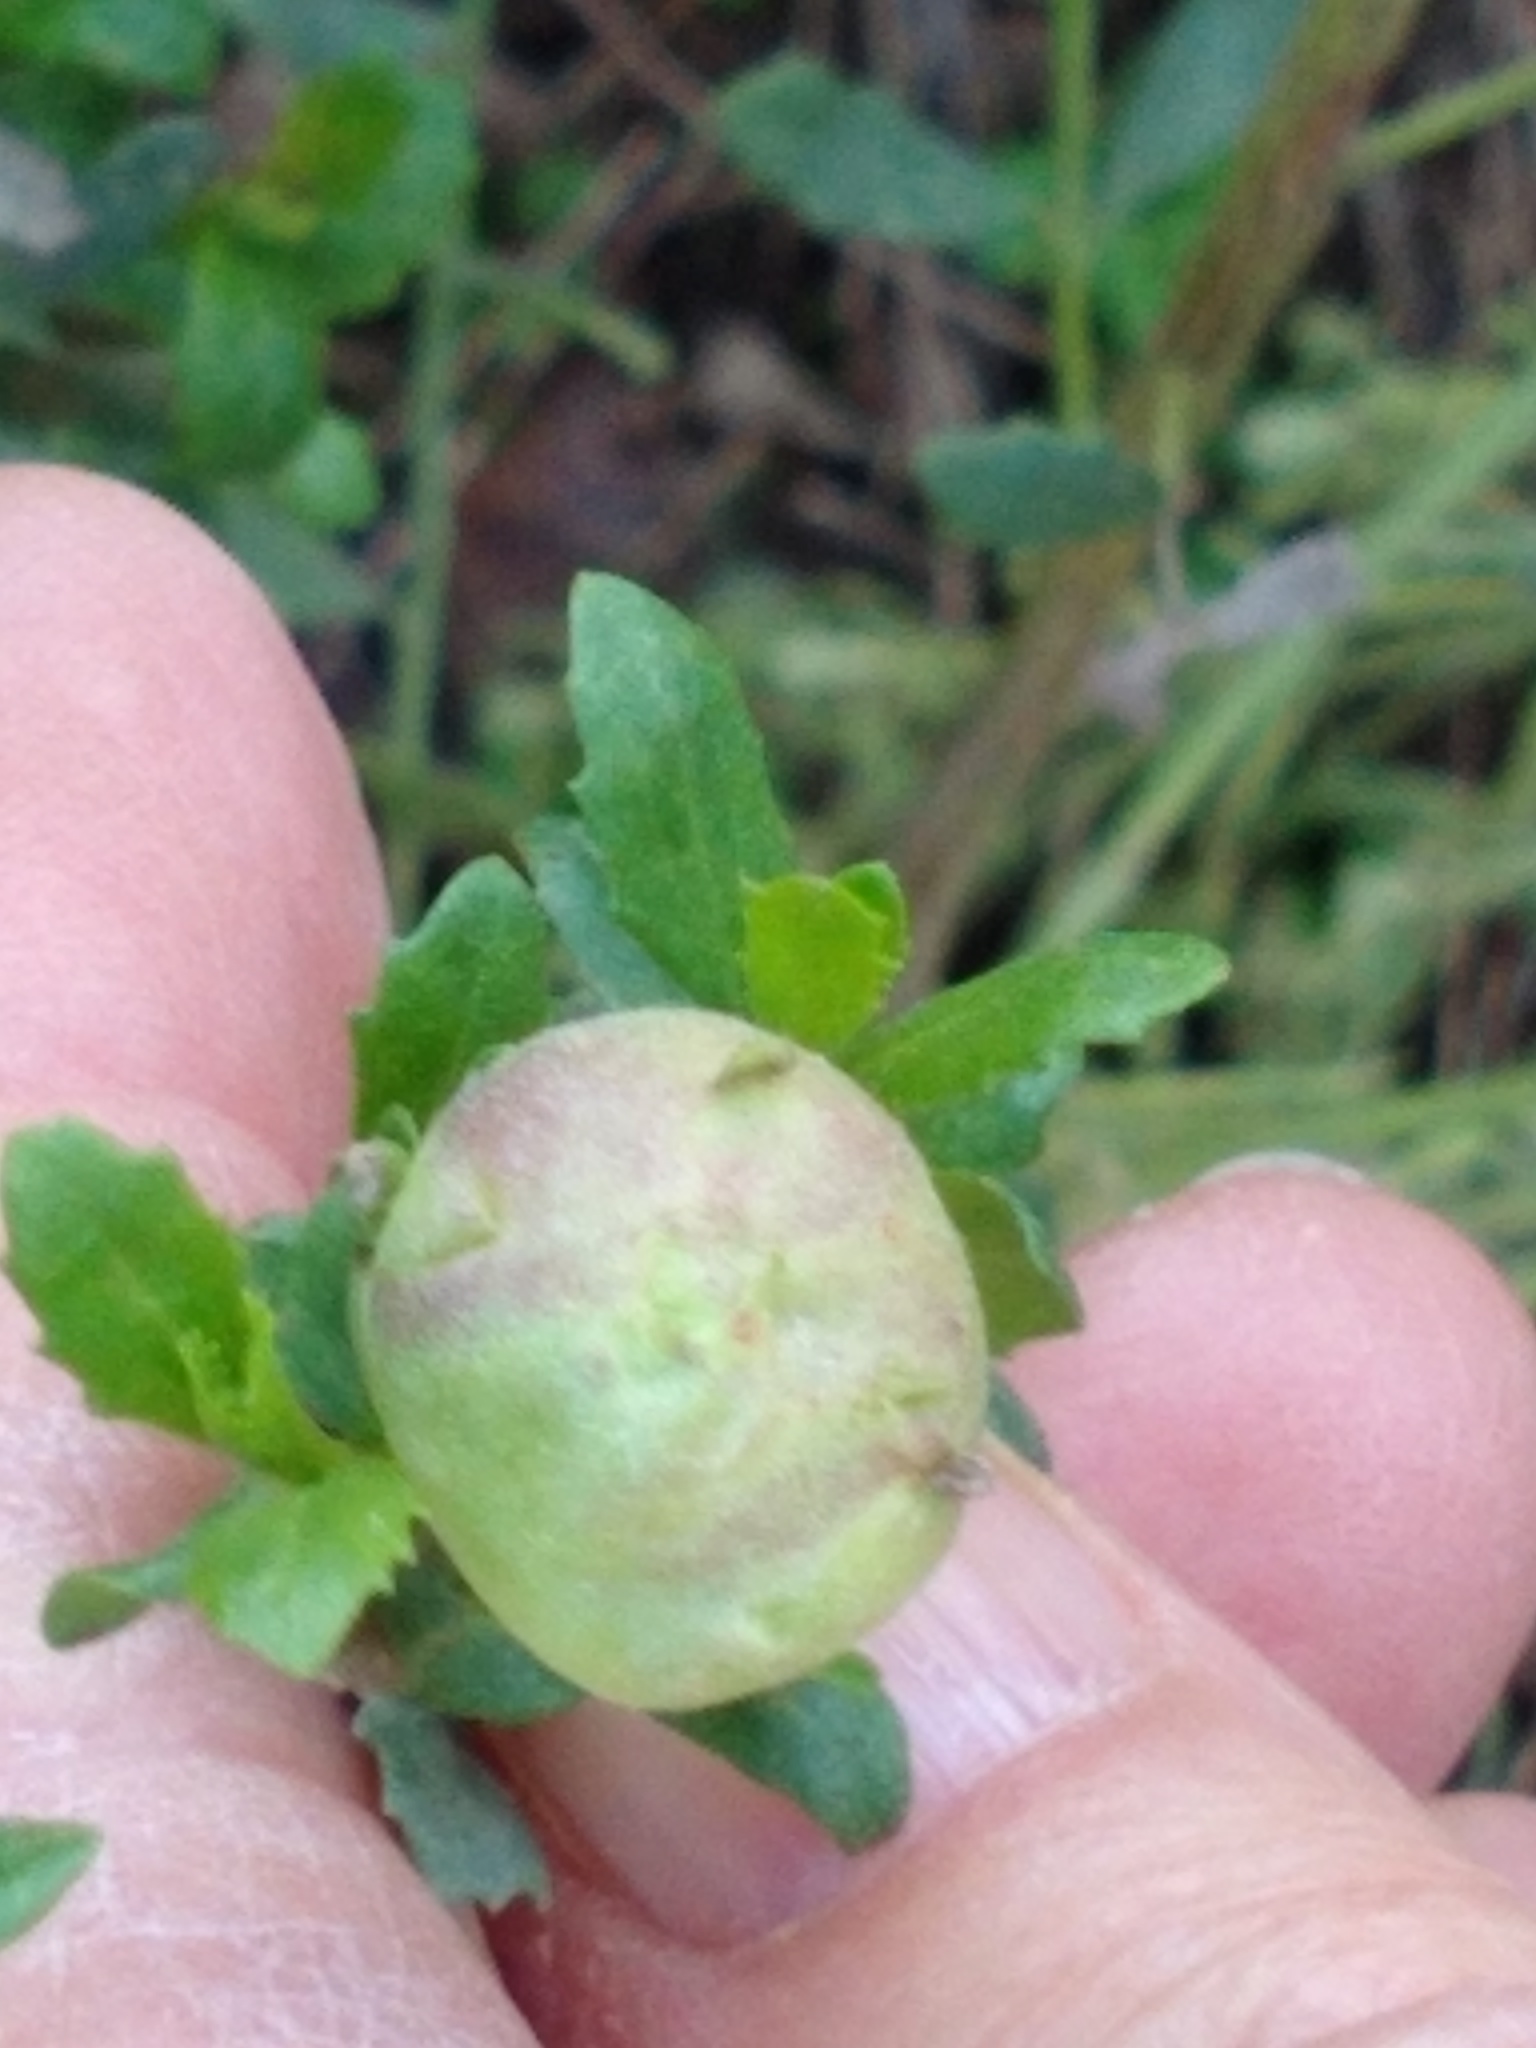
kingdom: Animalia
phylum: Arthropoda
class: Insecta
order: Diptera
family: Cecidomyiidae
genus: Rhopalomyia
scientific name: Rhopalomyia californica
